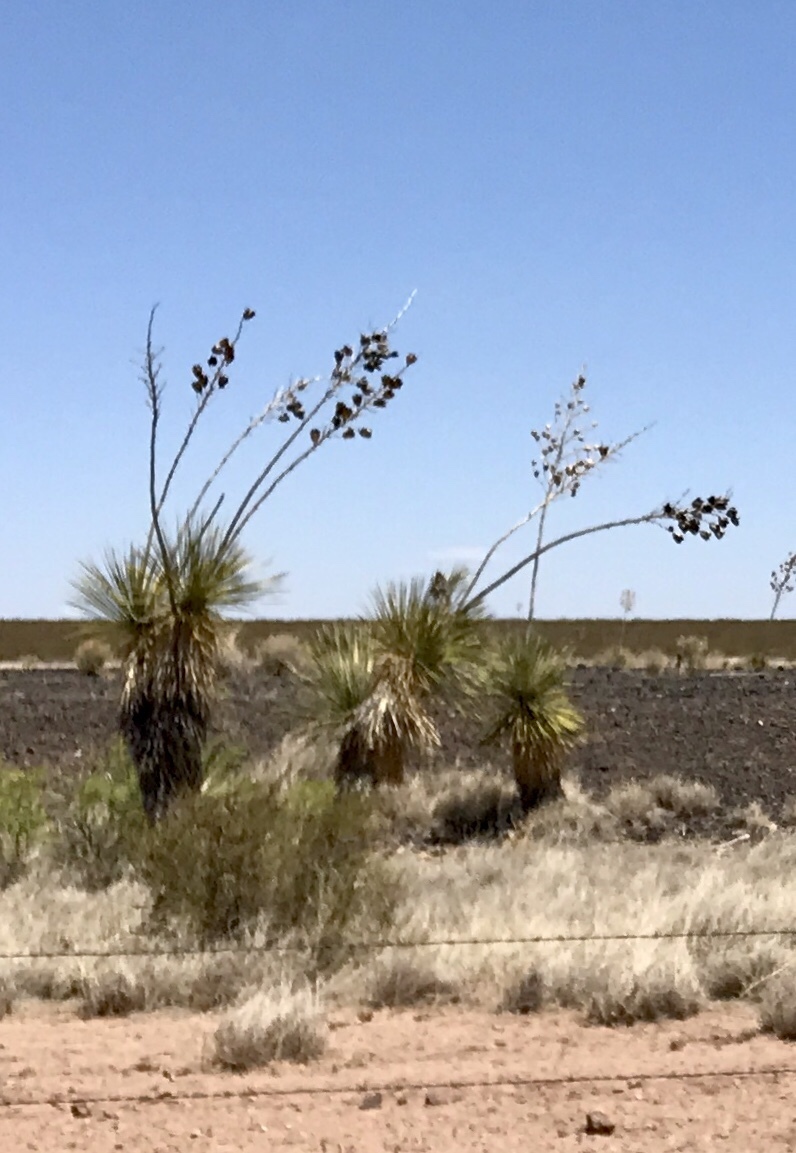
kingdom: Plantae
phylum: Tracheophyta
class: Liliopsida
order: Asparagales
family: Asparagaceae
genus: Yucca
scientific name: Yucca elata
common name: Palmella
